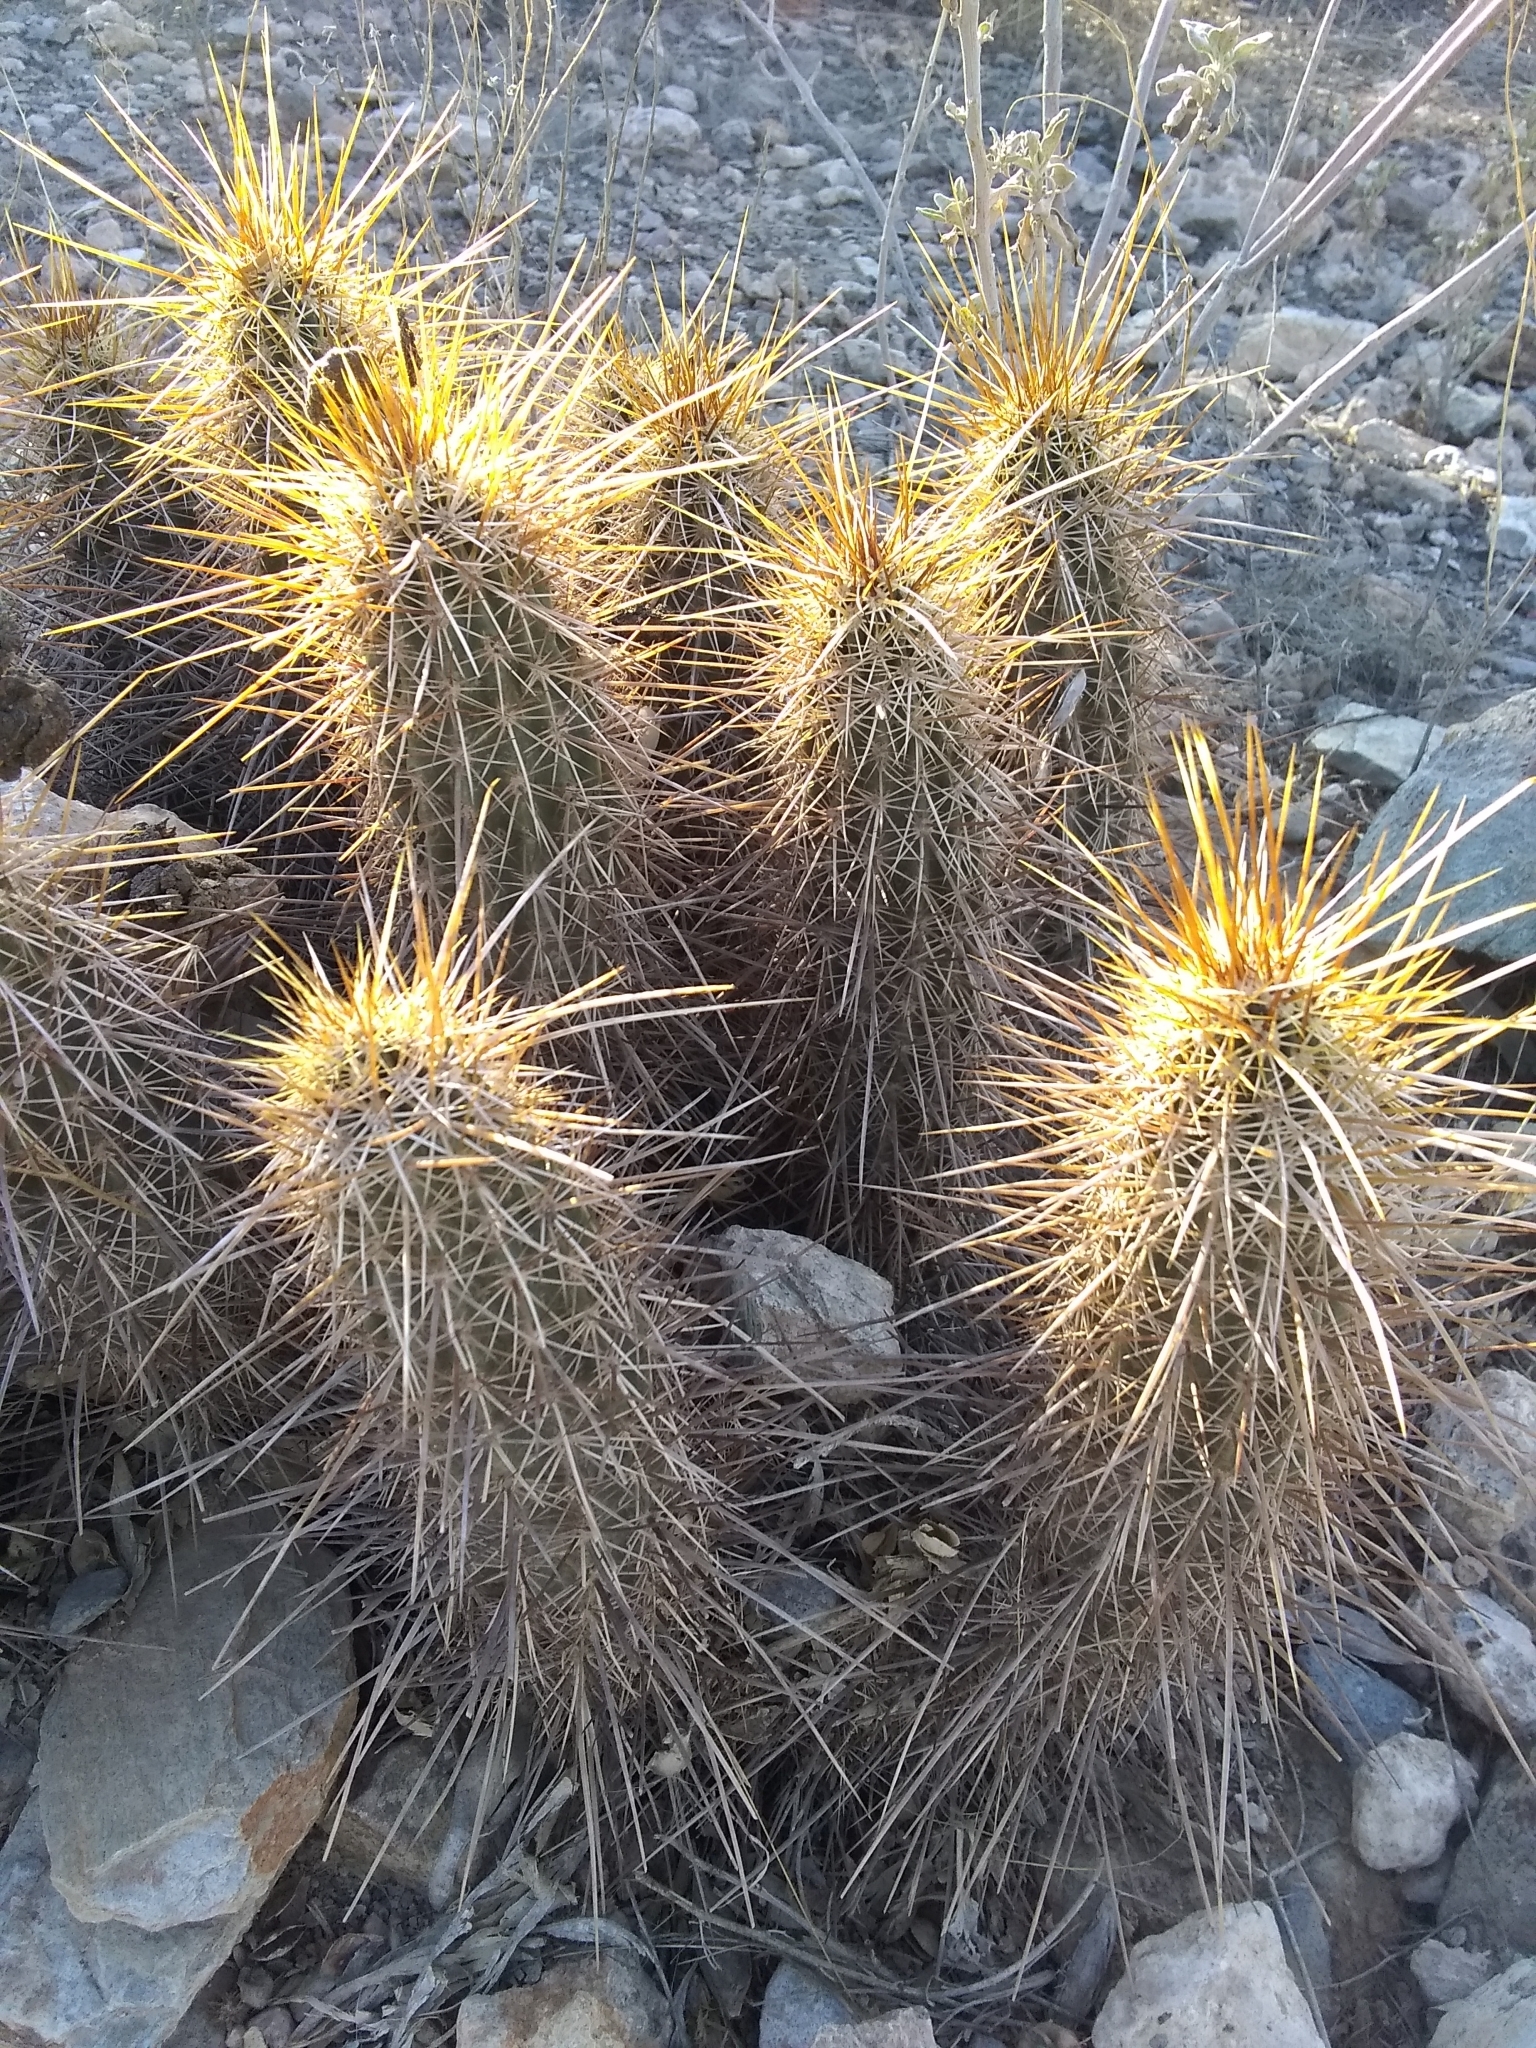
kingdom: Plantae
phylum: Tracheophyta
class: Magnoliopsida
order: Caryophyllales
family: Cactaceae
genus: Echinocereus
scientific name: Echinocereus engelmannii
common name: Engelmann's hedgehog cactus
